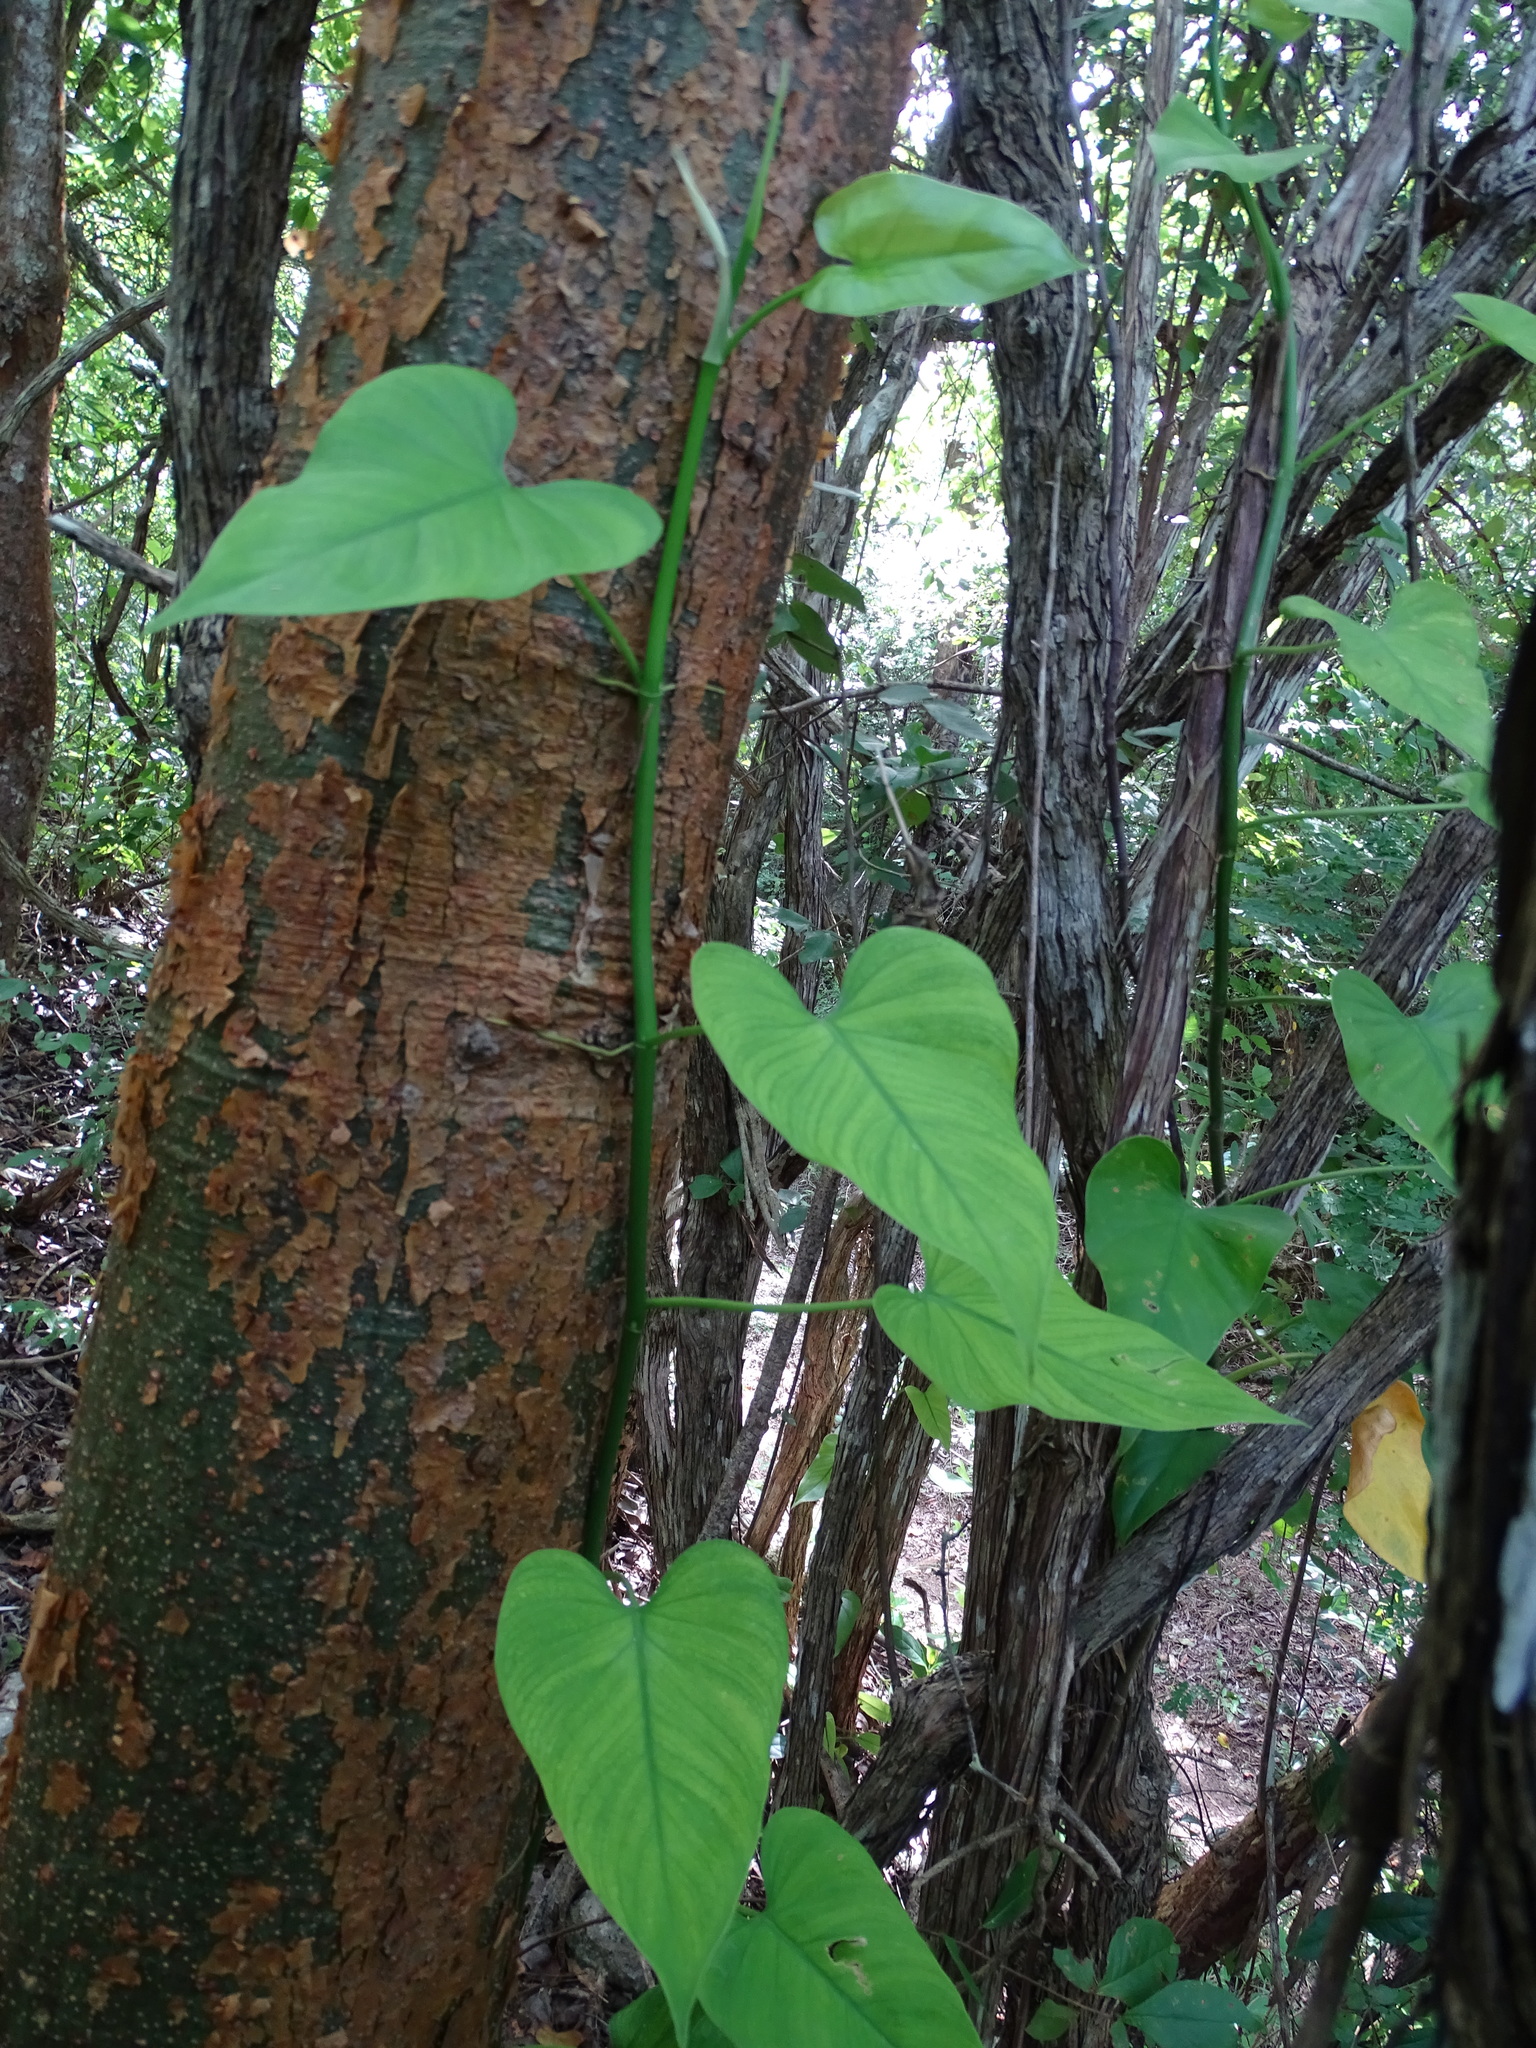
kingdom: Plantae
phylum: Tracheophyta
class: Liliopsida
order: Alismatales
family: Araceae
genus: Philodendron
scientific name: Philodendron jacquinii
